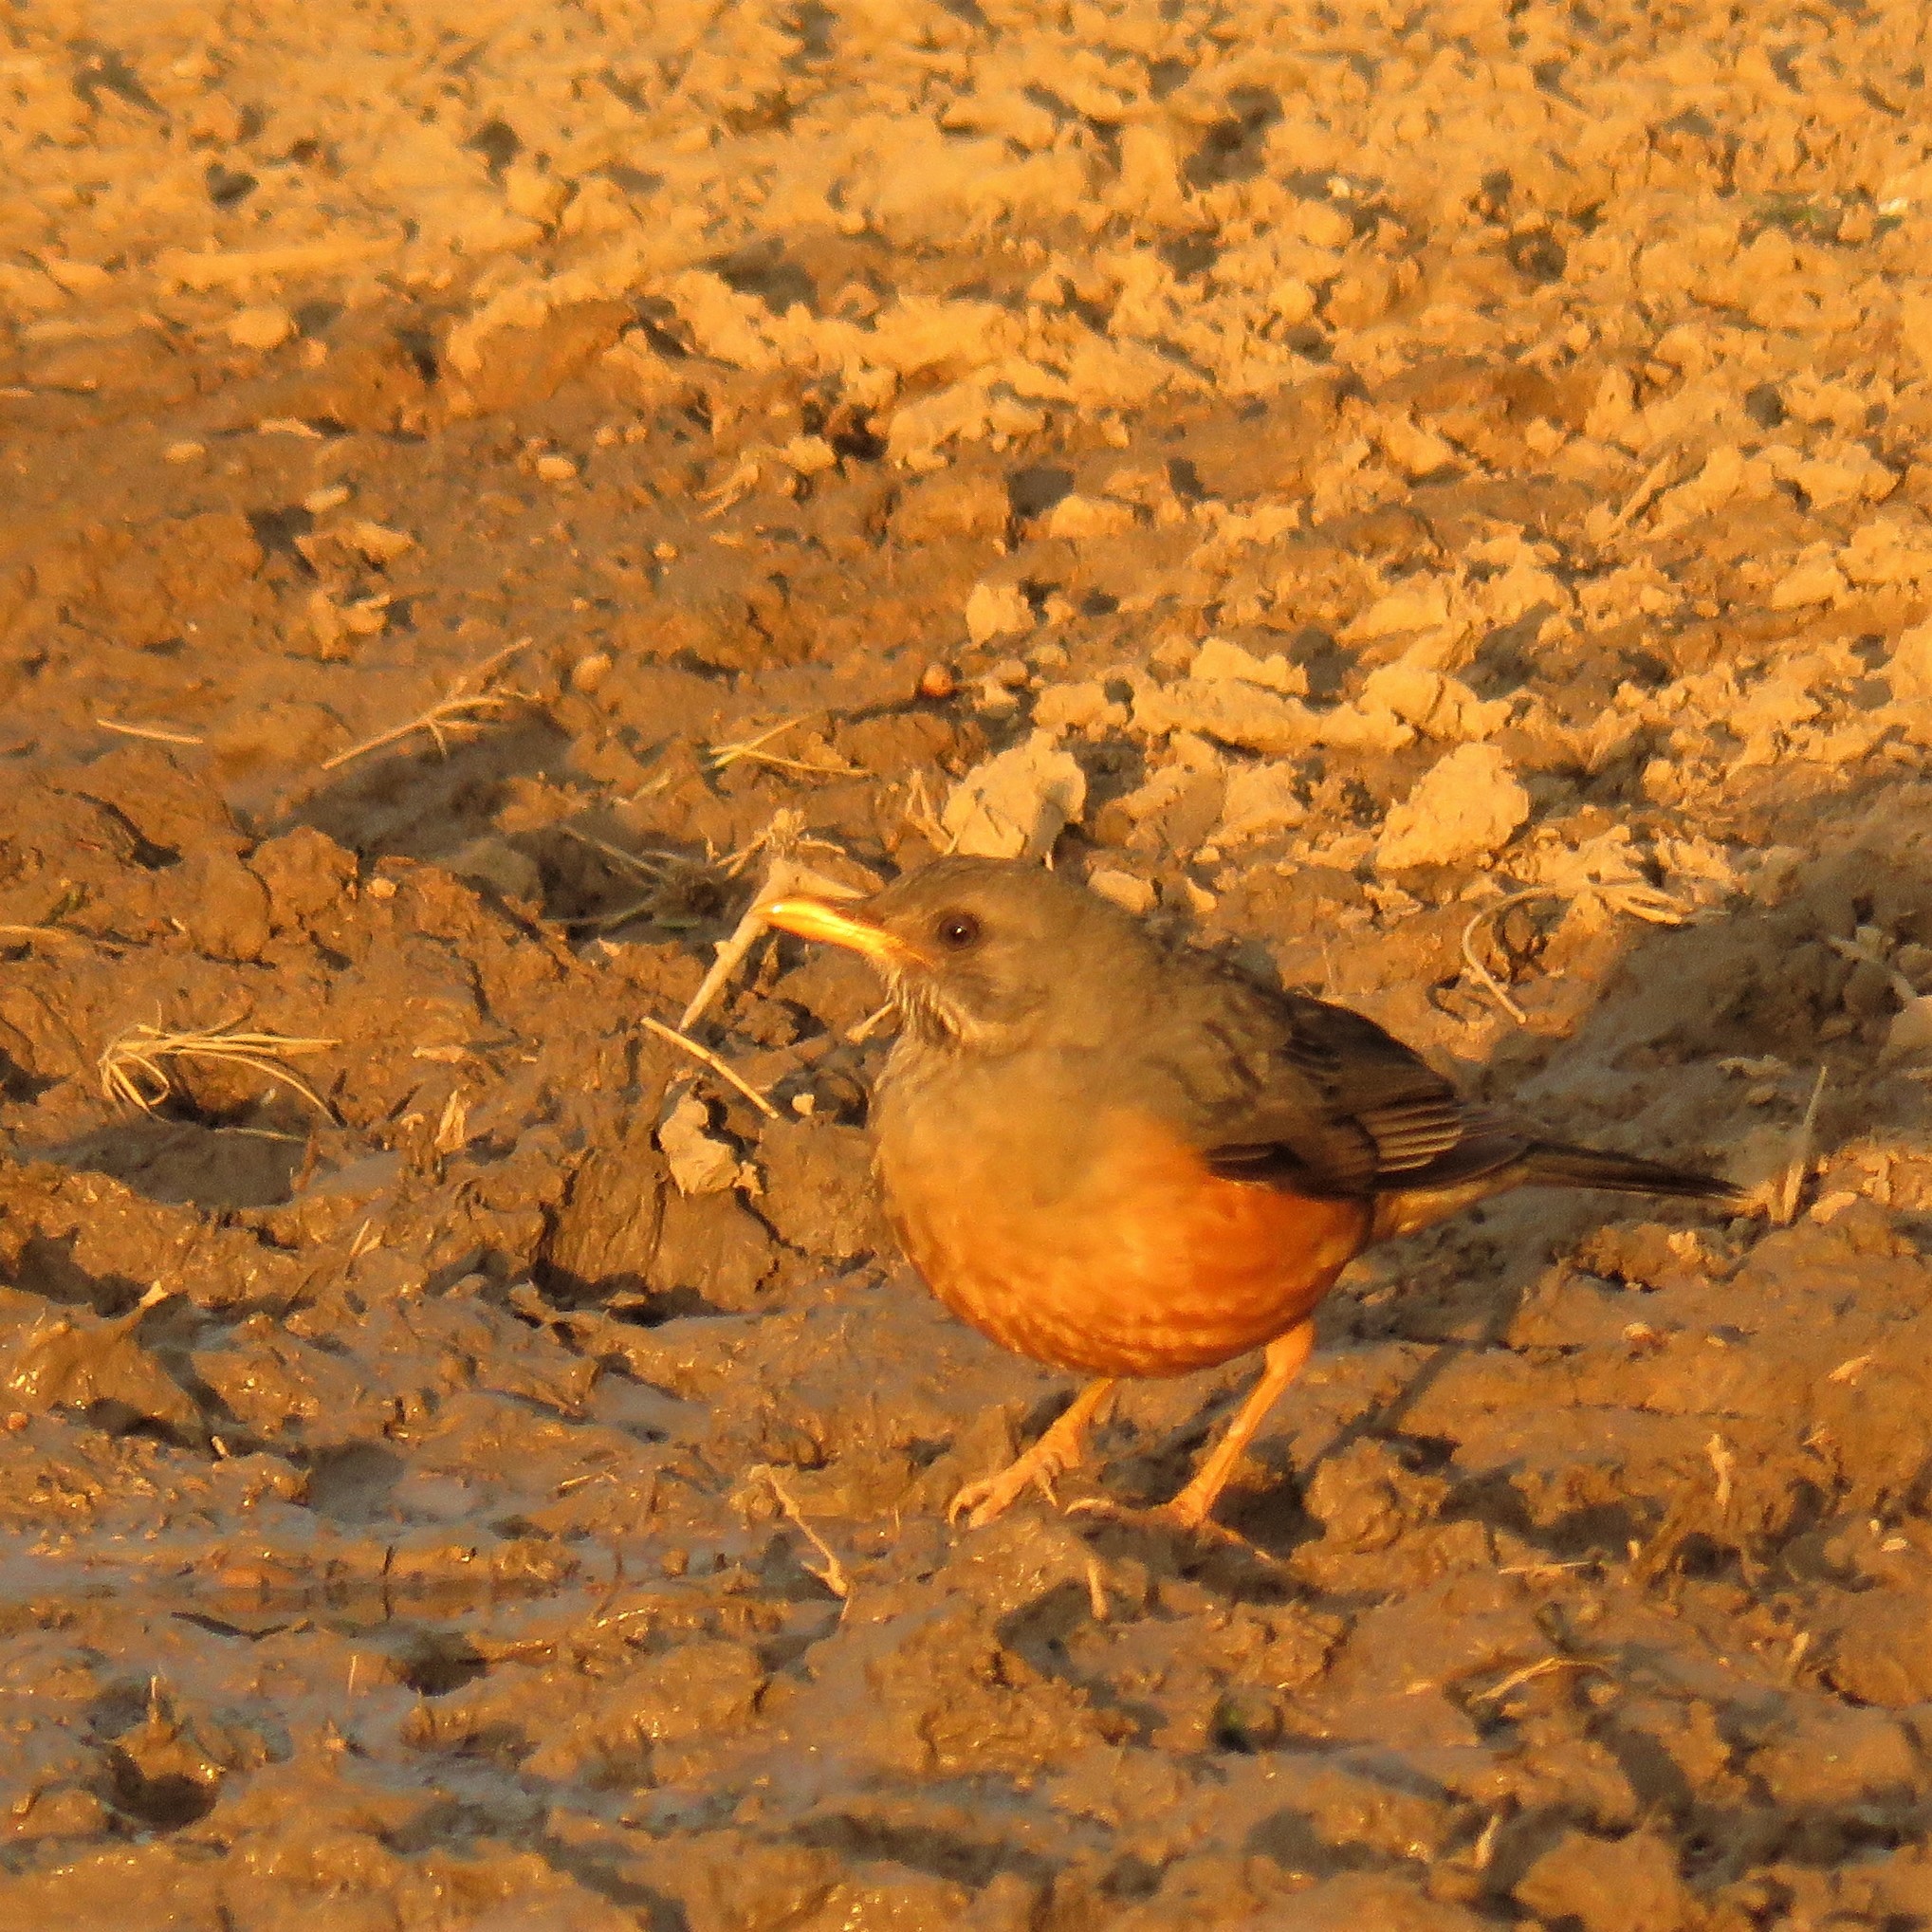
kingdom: Animalia
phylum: Chordata
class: Aves
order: Passeriformes
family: Turdidae
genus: Turdus
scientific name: Turdus olivaceus
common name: Olive thrush
